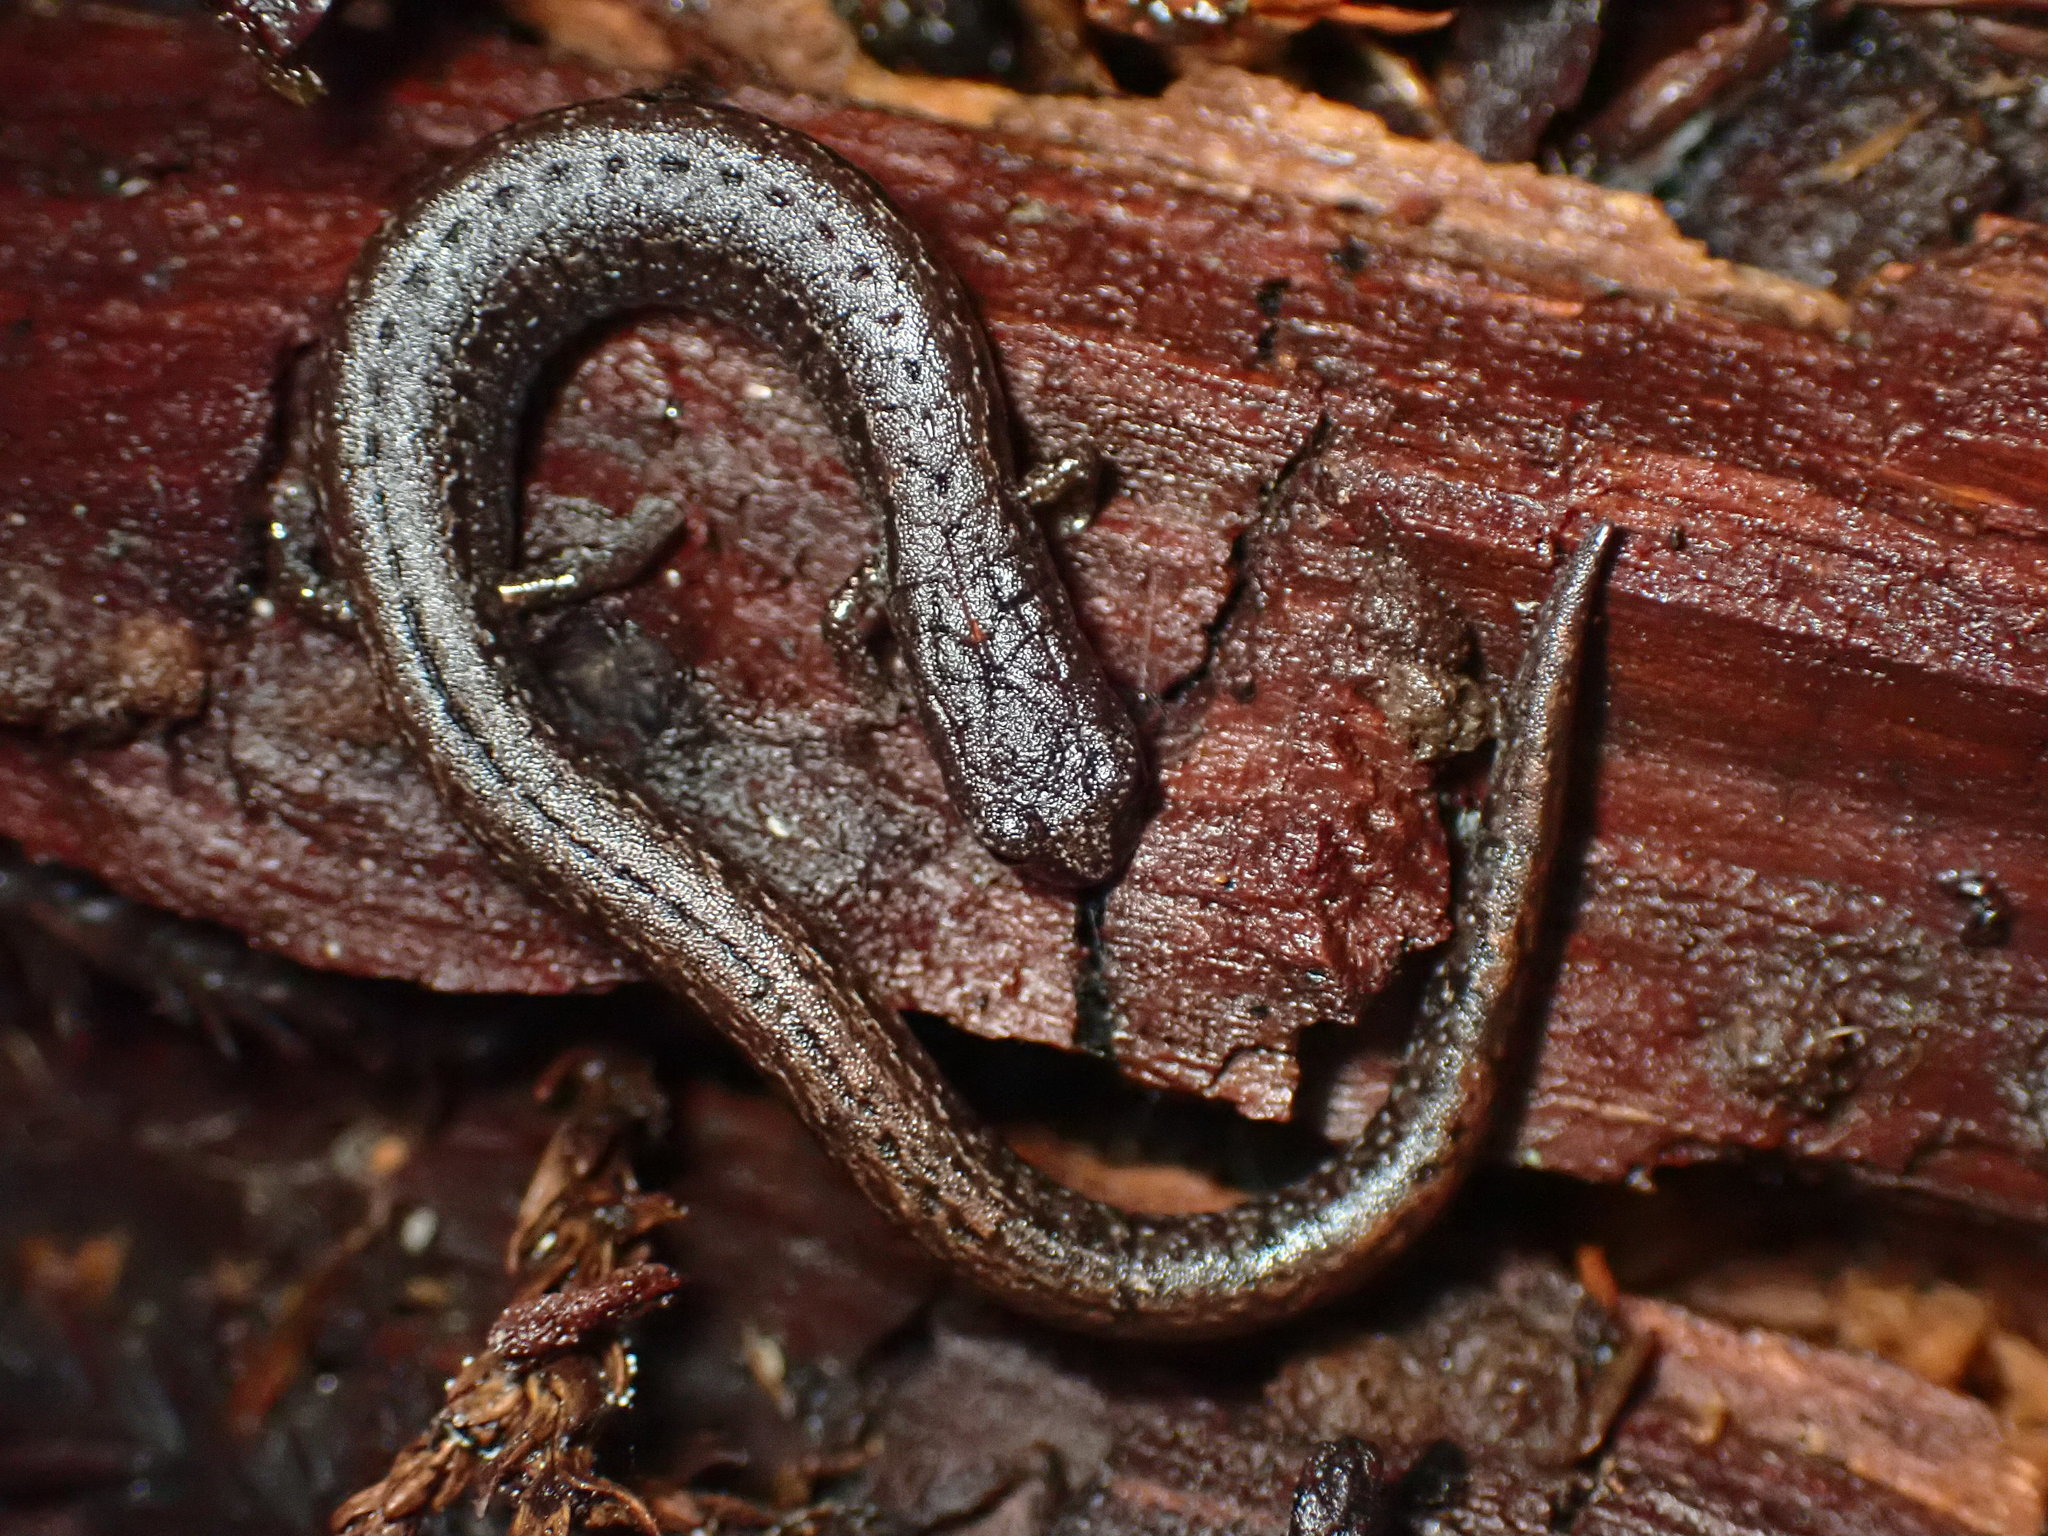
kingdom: Animalia
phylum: Chordata
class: Amphibia
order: Caudata
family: Plethodontidae
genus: Batrachoseps
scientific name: Batrachoseps attenuatus
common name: California slender salamander
